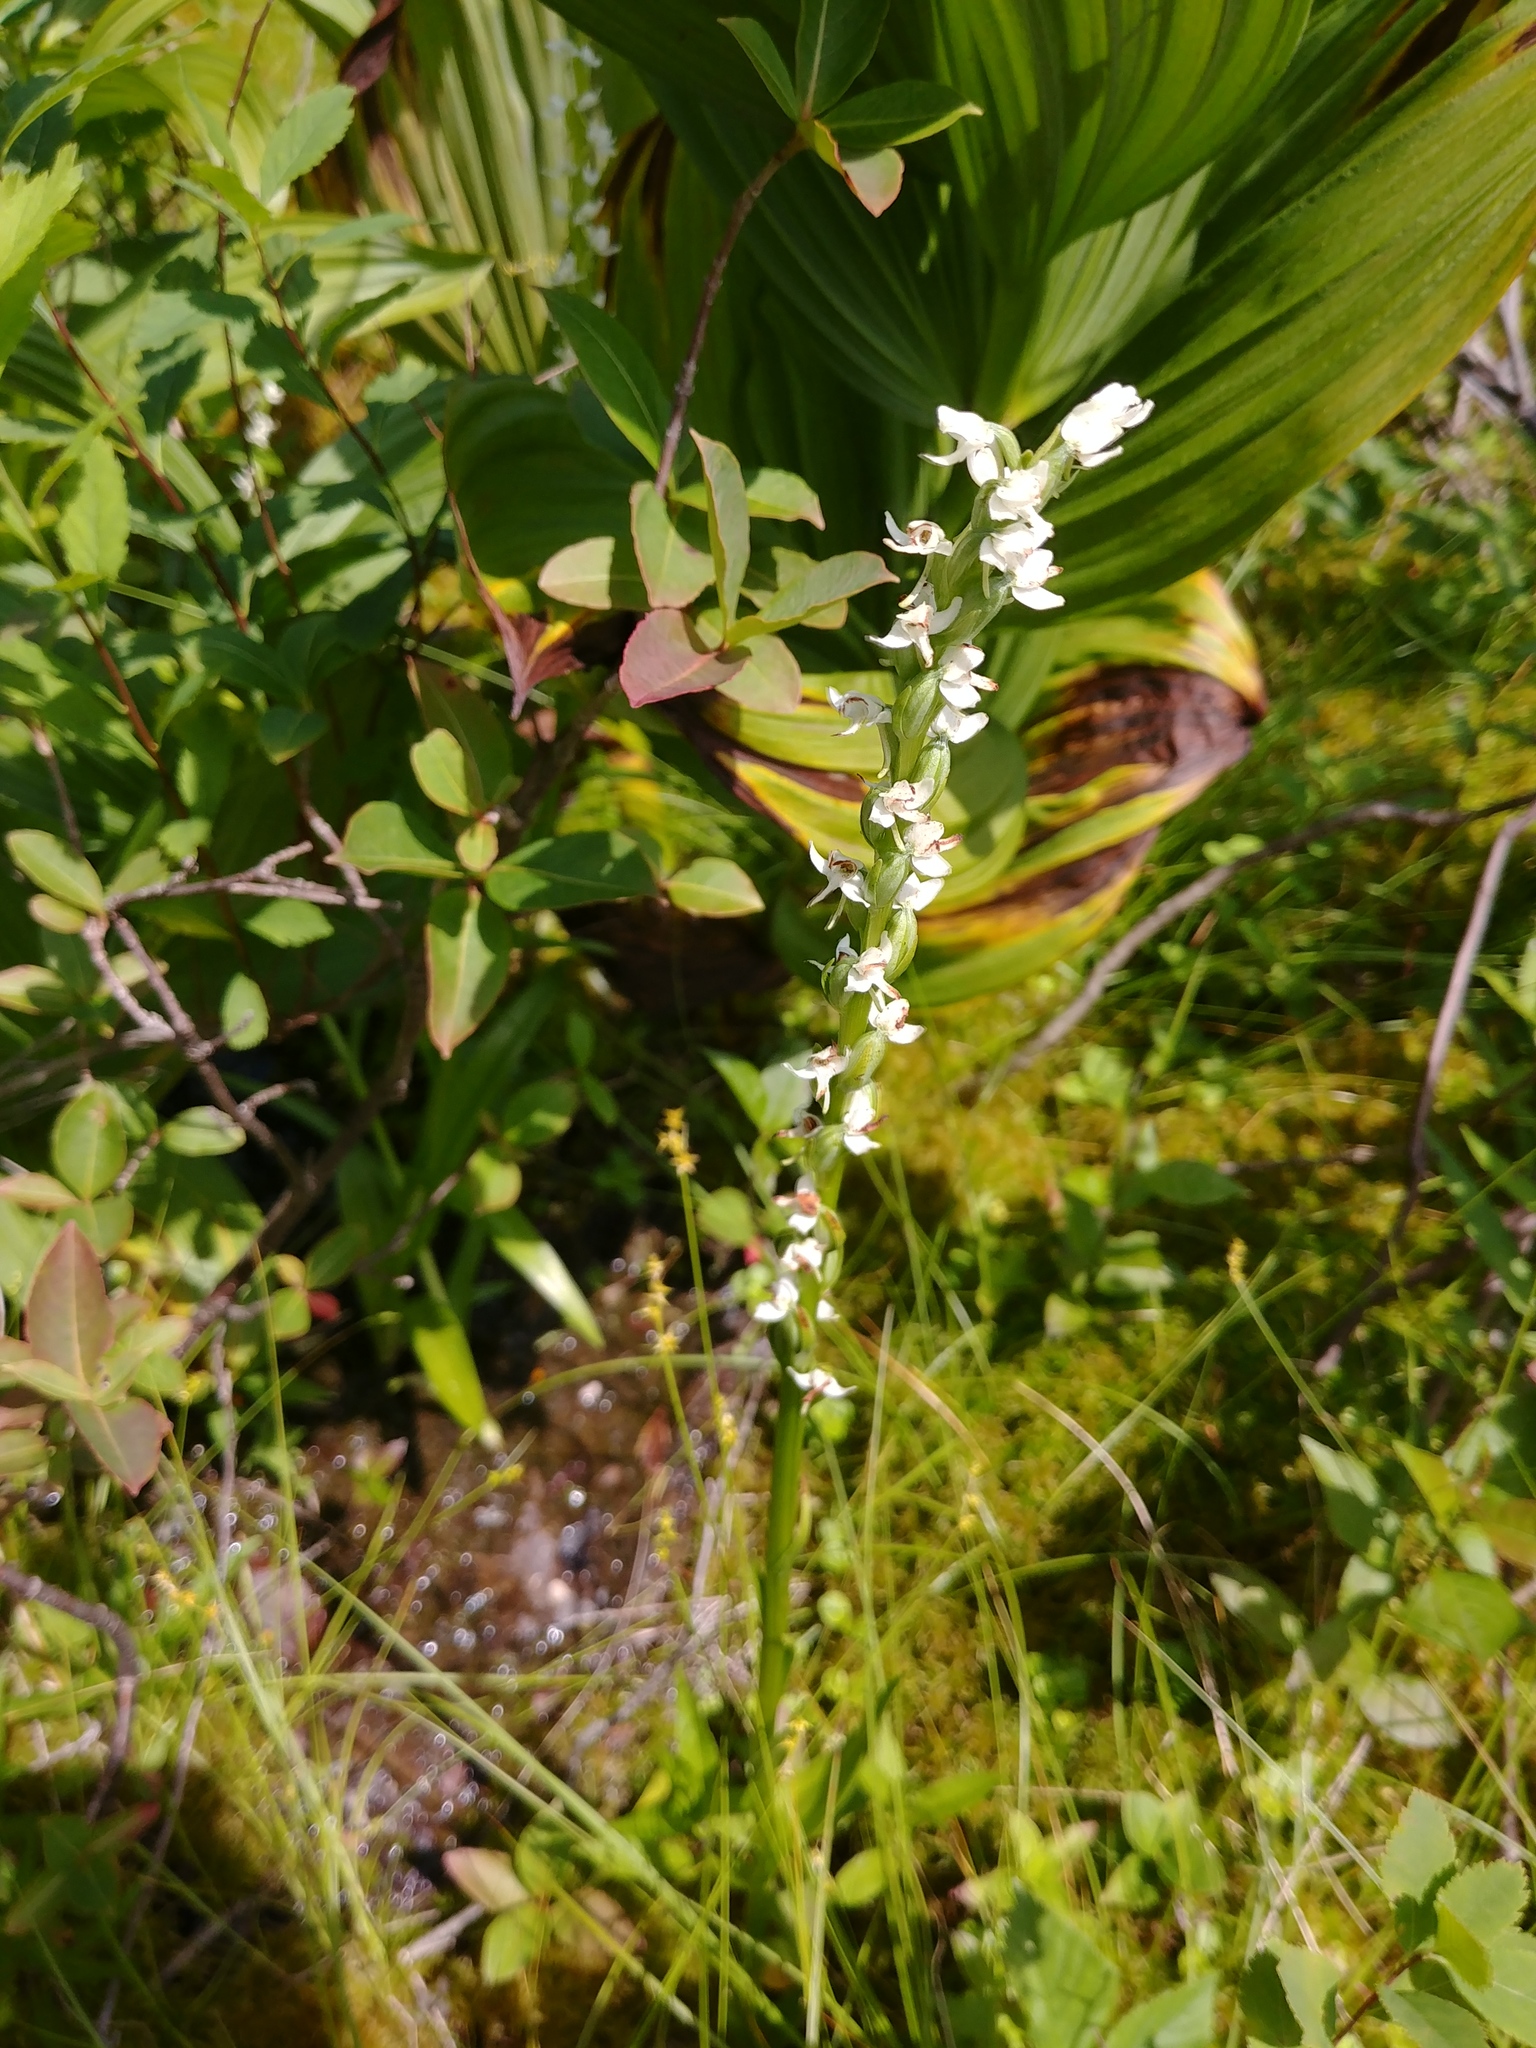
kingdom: Plantae
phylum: Tracheophyta
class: Liliopsida
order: Asparagales
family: Orchidaceae
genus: Platanthera
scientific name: Platanthera dilatata
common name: Bog candles
